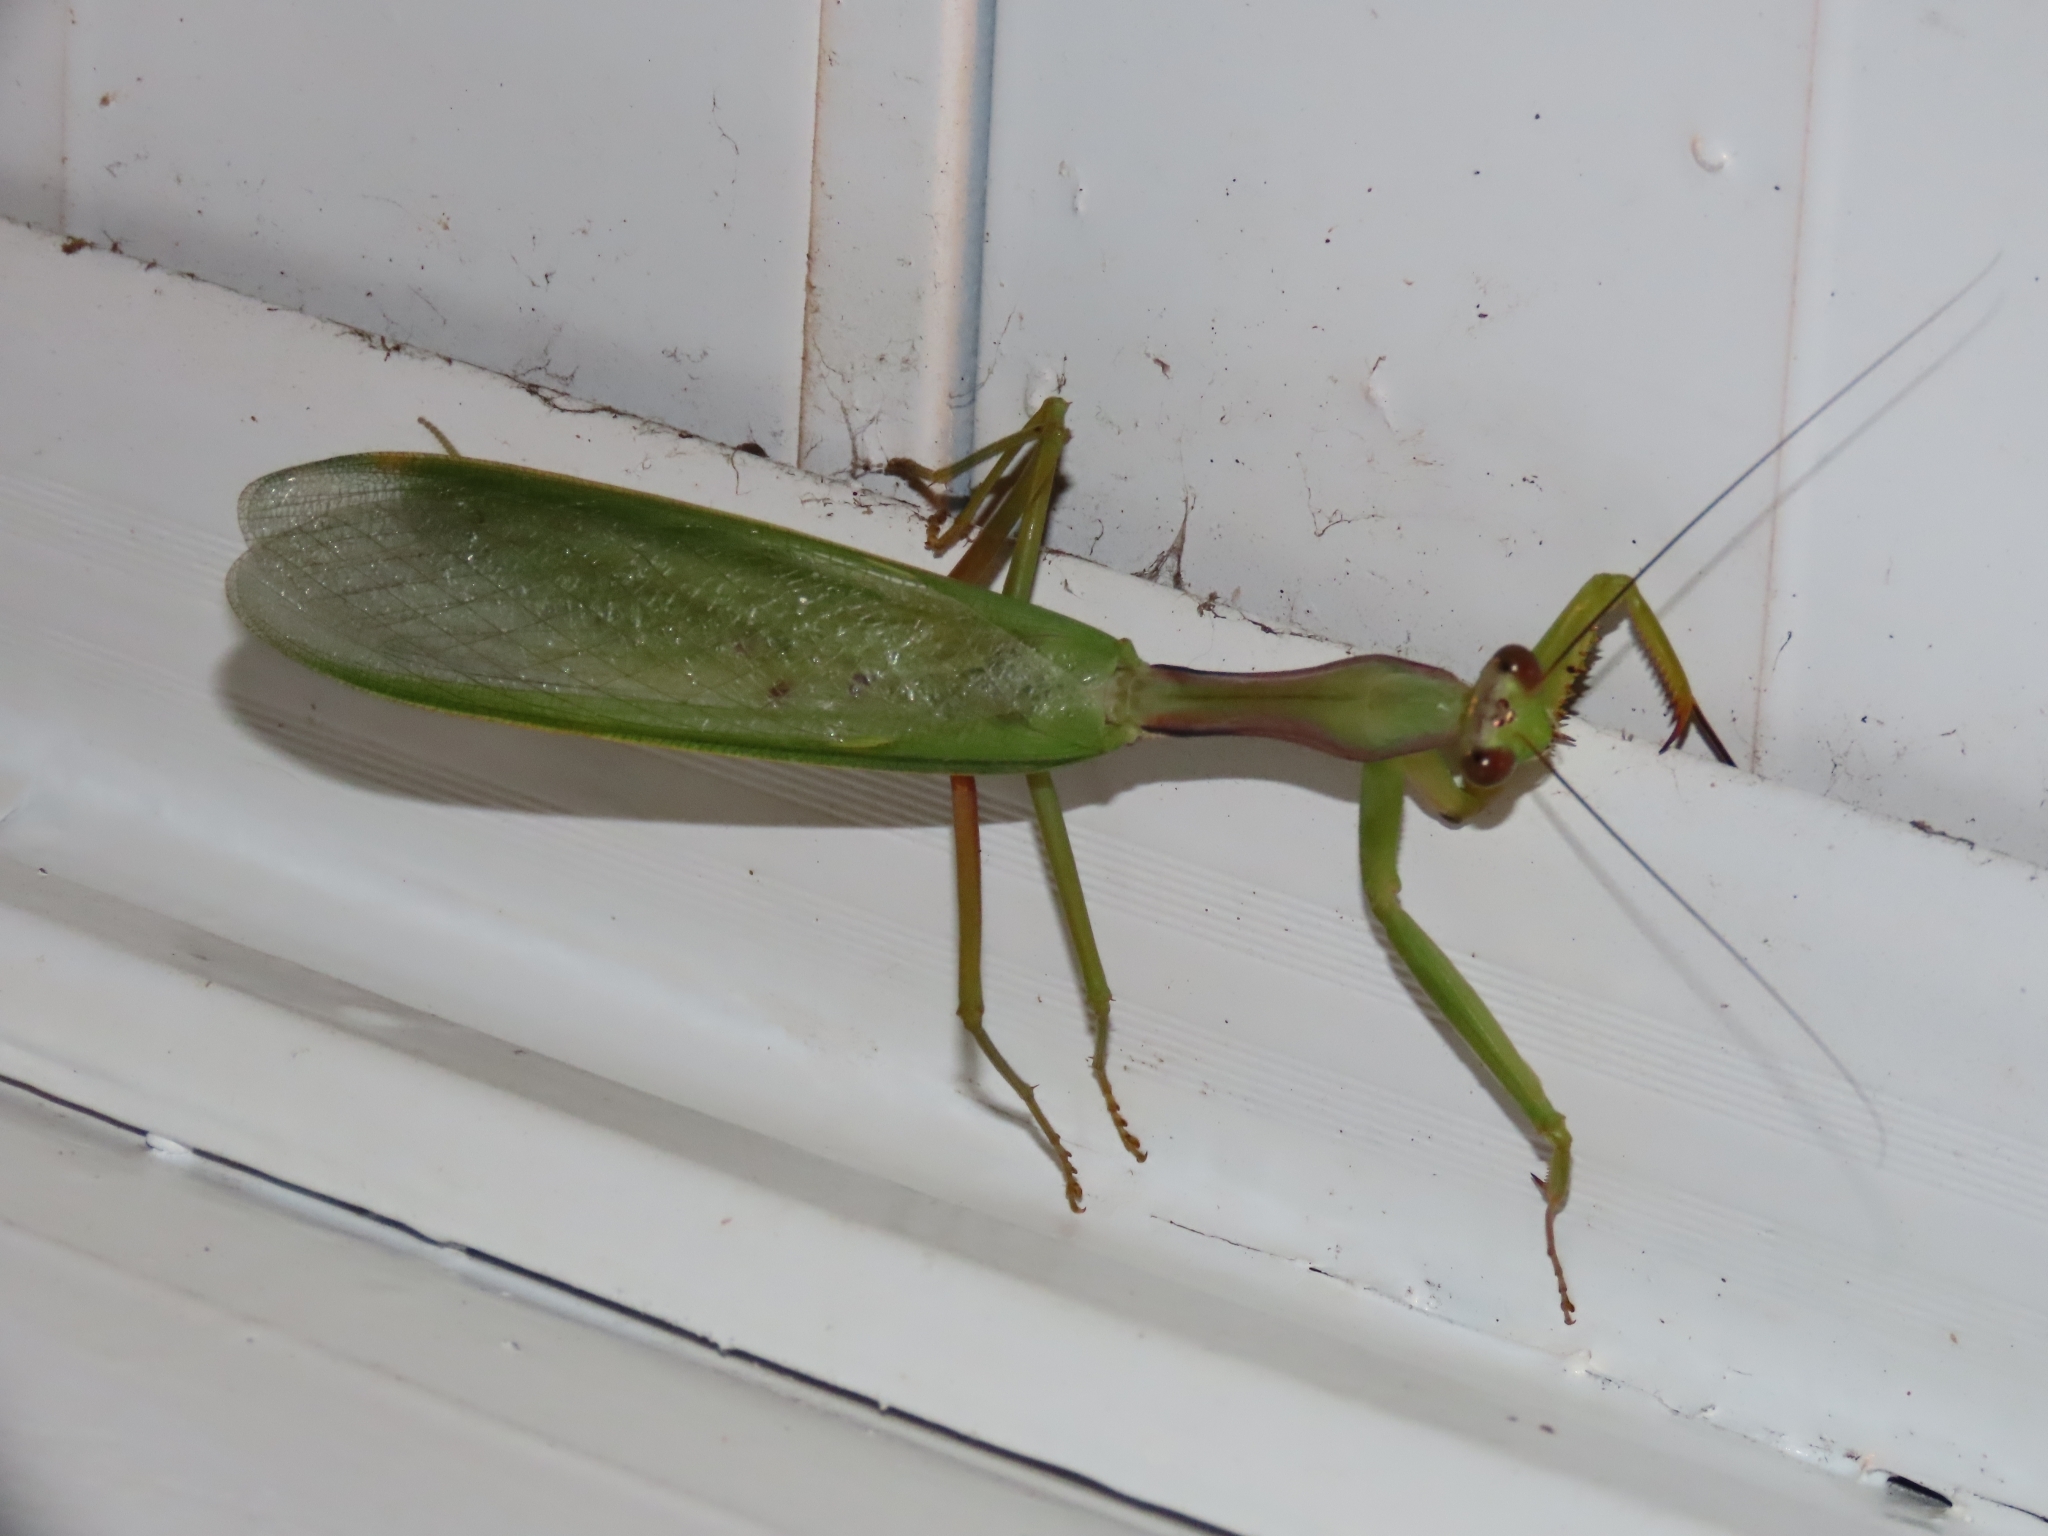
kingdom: Animalia
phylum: Arthropoda
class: Insecta
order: Mantodea
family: Mantidae
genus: Titanodula
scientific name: Titanodula formosana
